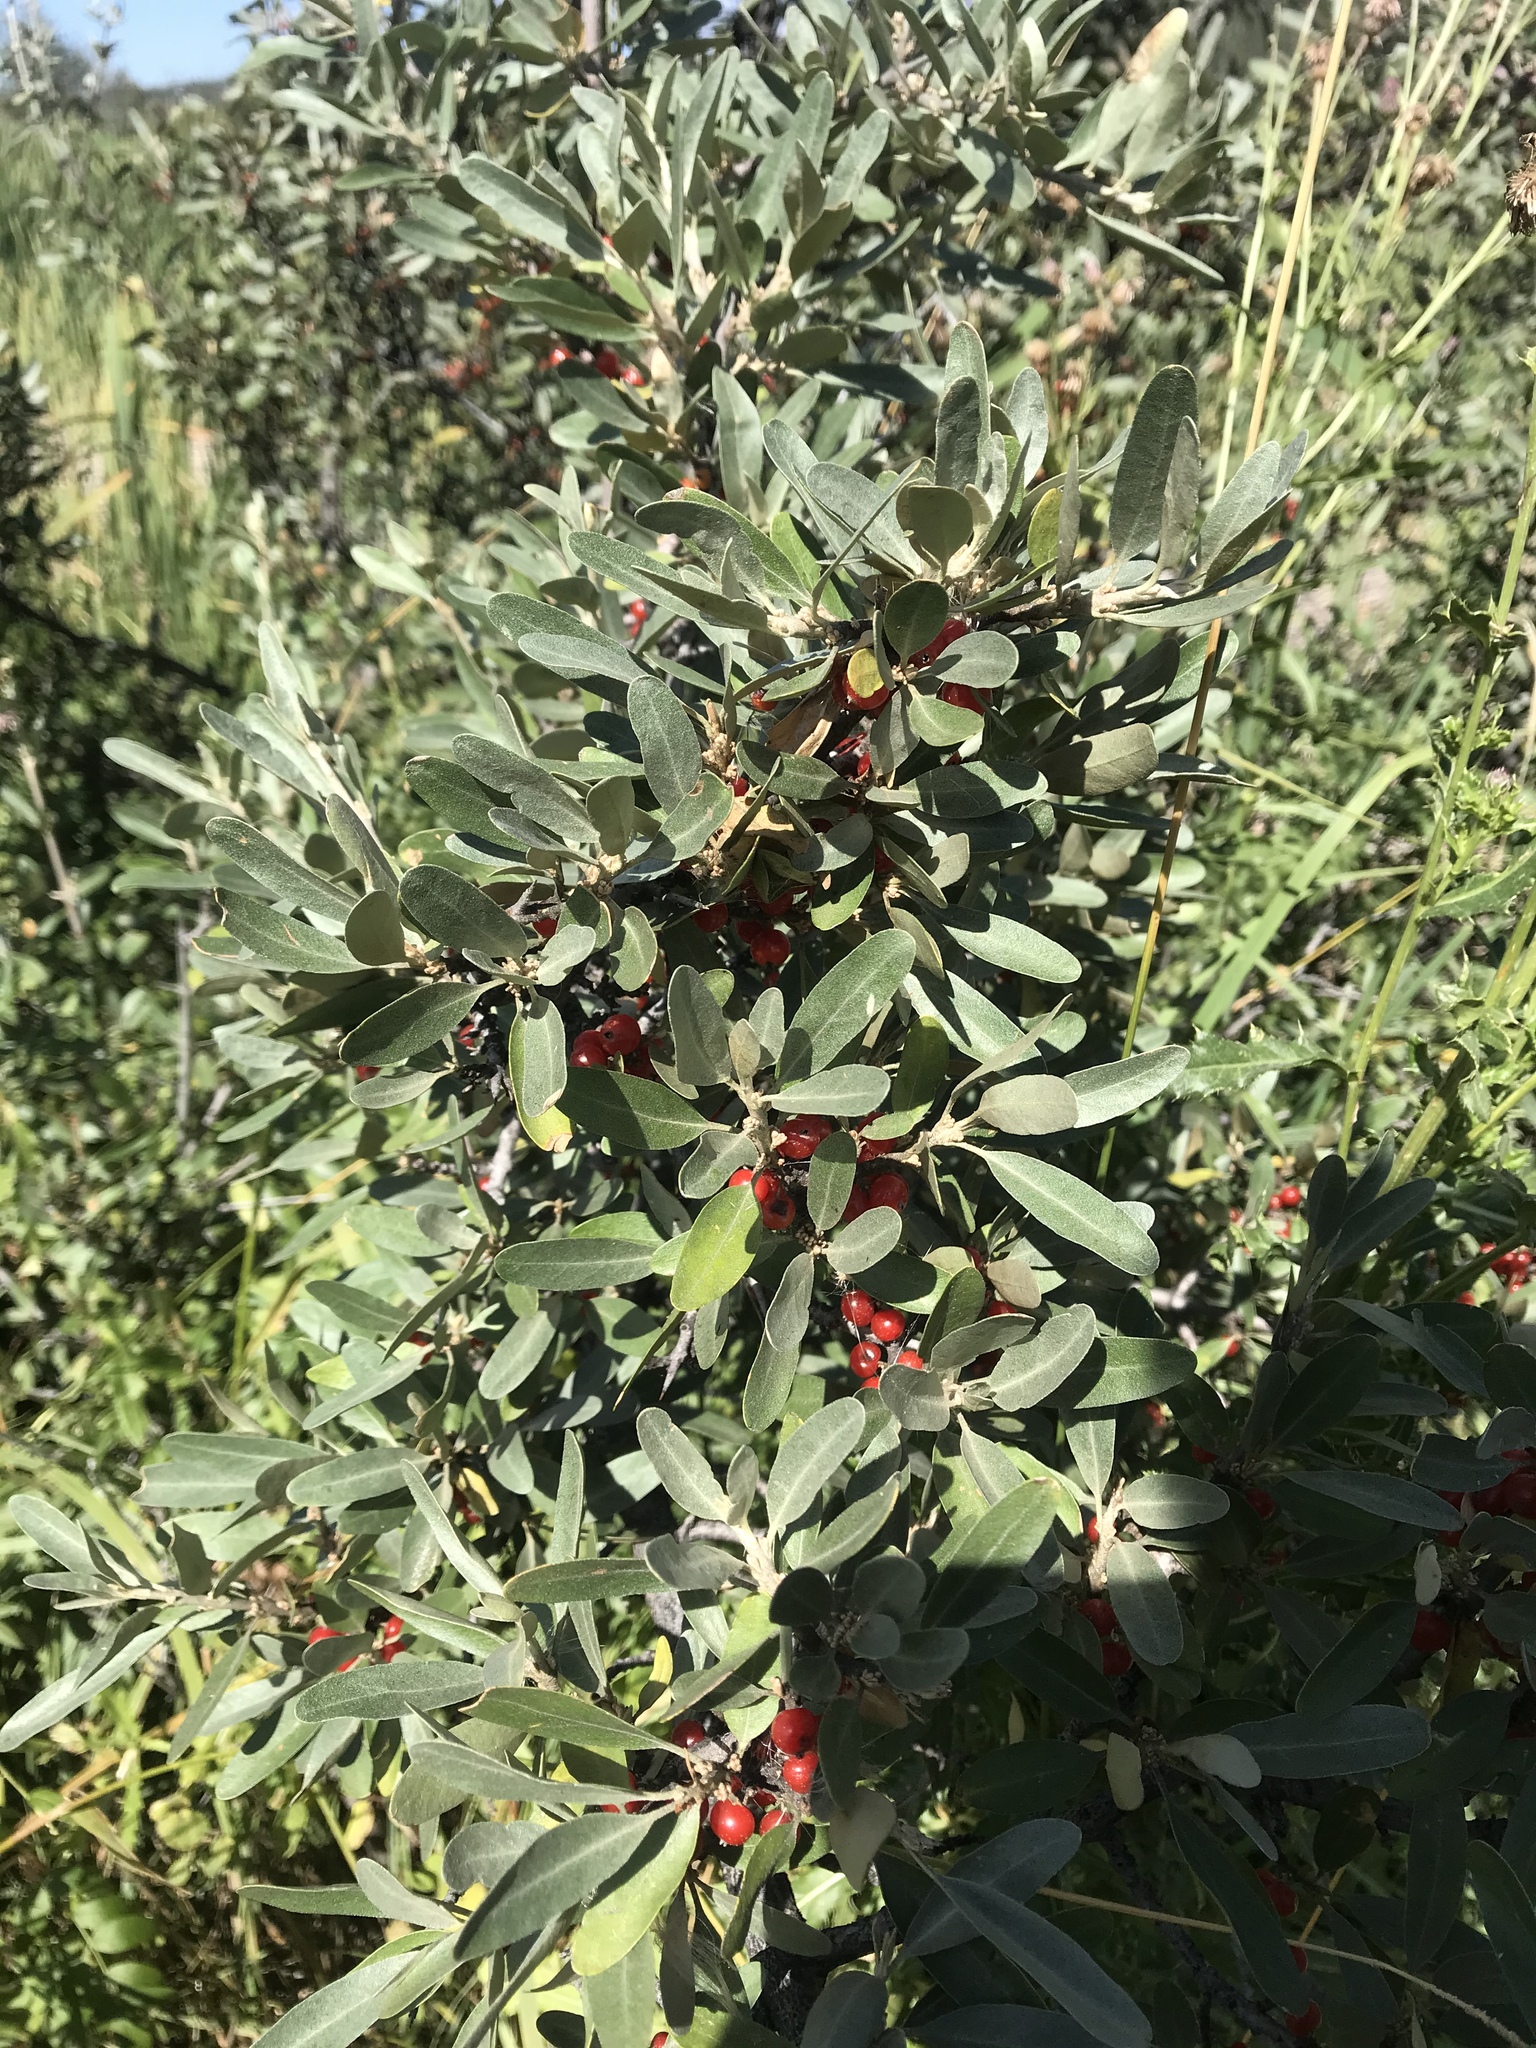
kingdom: Plantae
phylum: Tracheophyta
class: Magnoliopsida
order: Rosales
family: Elaeagnaceae
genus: Shepherdia
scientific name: Shepherdia argentea
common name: Silver buffaloberry
